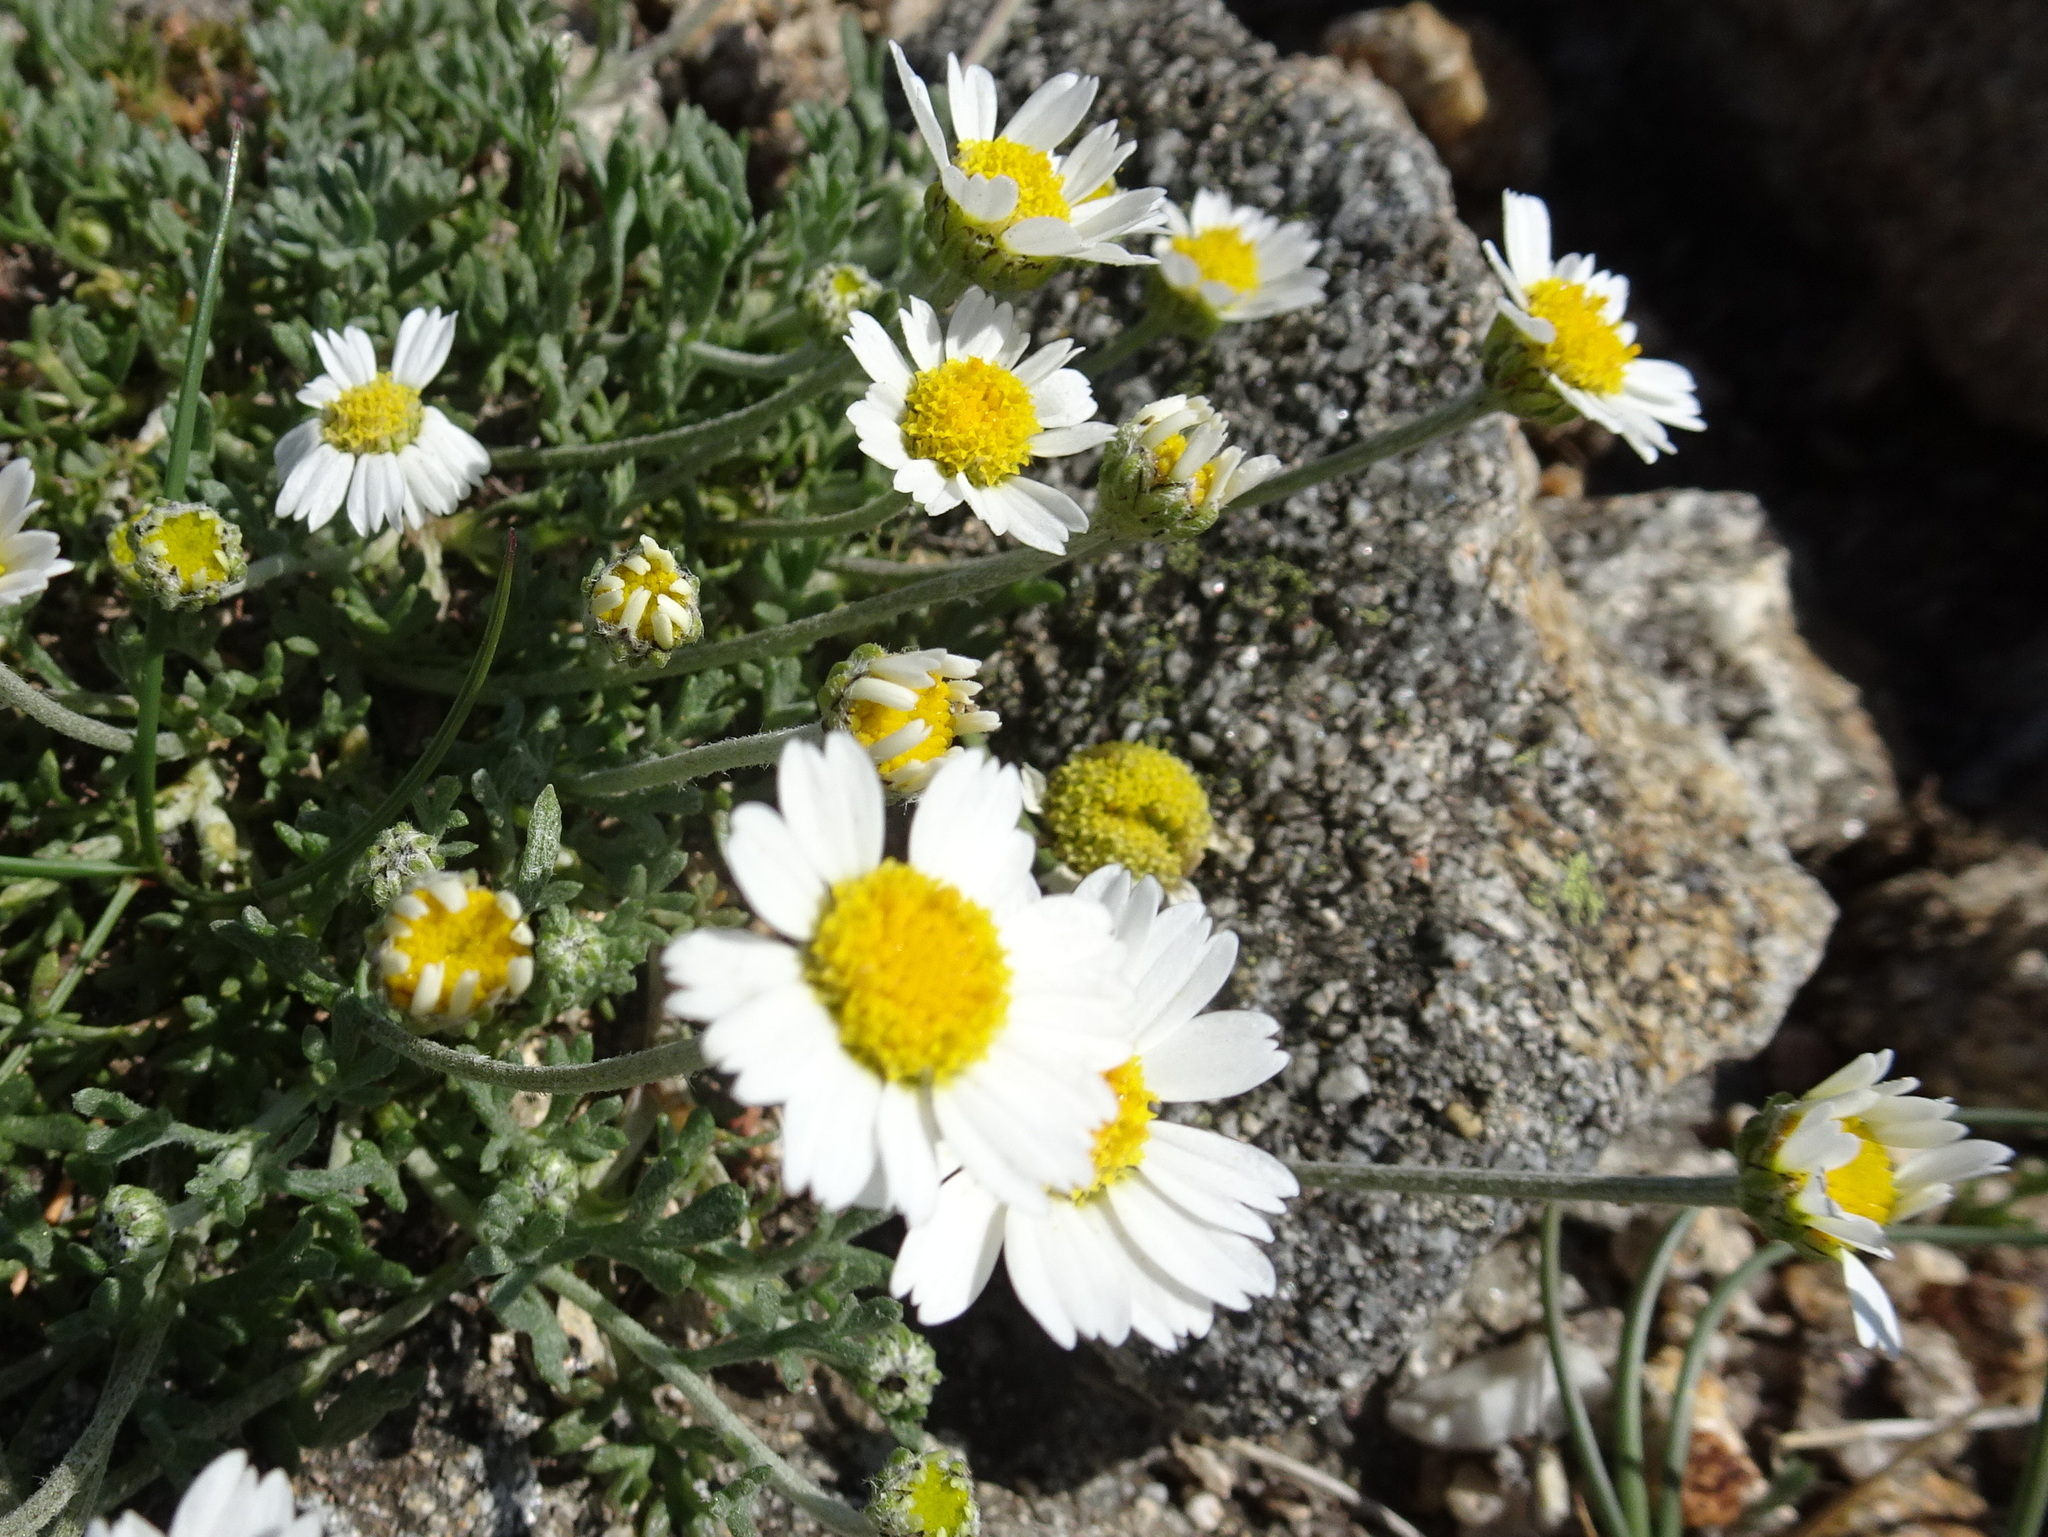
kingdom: Plantae
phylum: Tracheophyta
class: Magnoliopsida
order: Asterales
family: Asteraceae
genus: Anthemis
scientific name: Anthemis cretica
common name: Mountain dog-daisy
